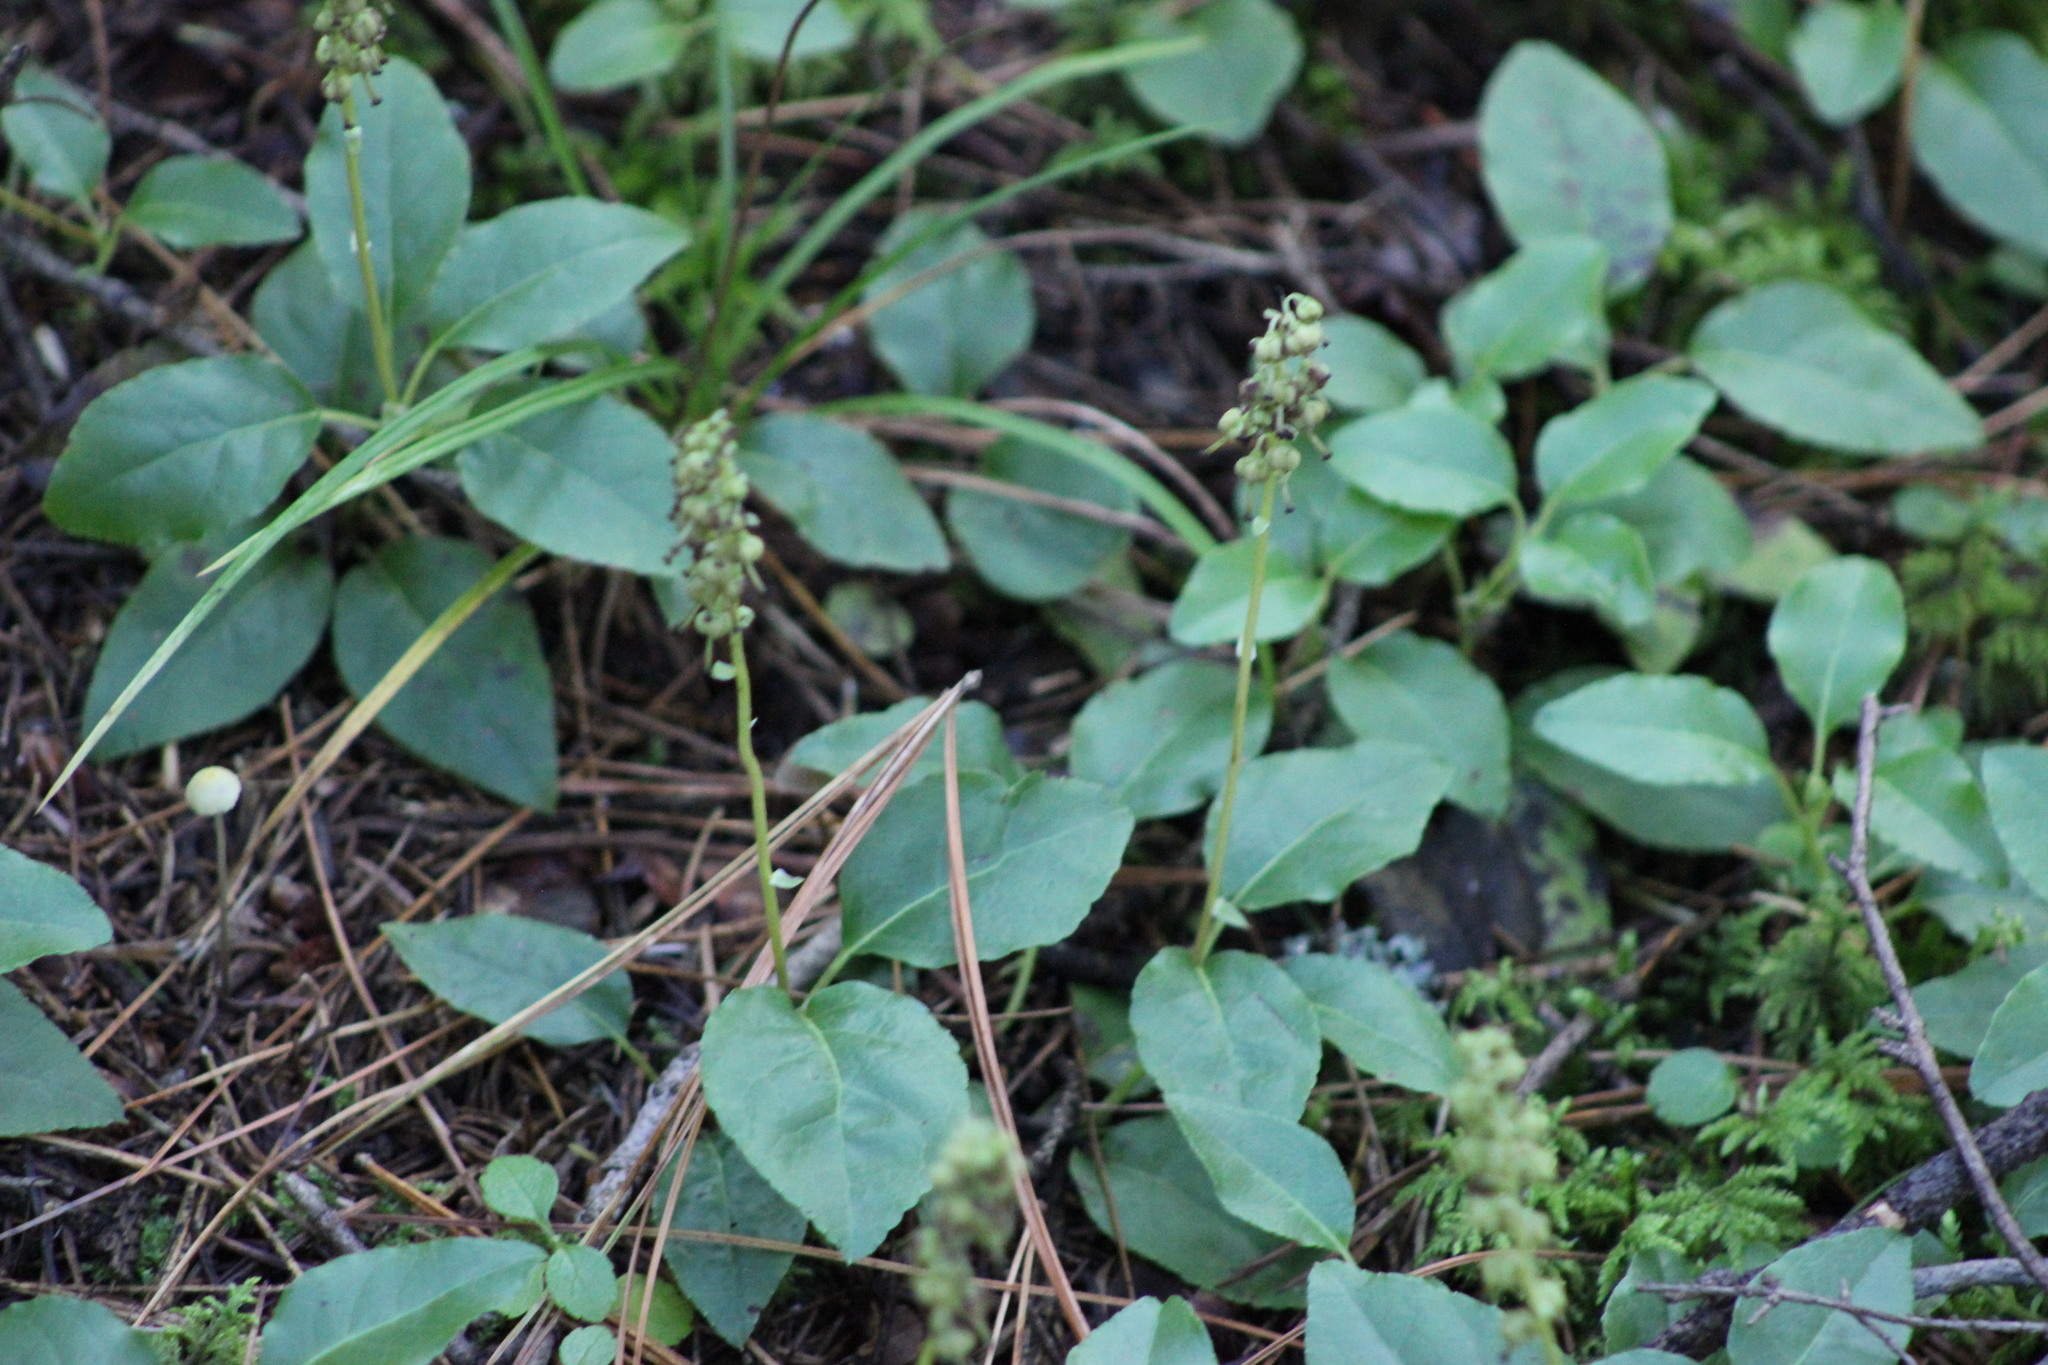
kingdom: Plantae
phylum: Tracheophyta
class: Magnoliopsida
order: Ericales
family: Ericaceae
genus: Orthilia
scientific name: Orthilia secunda
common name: One-sided orthilia
